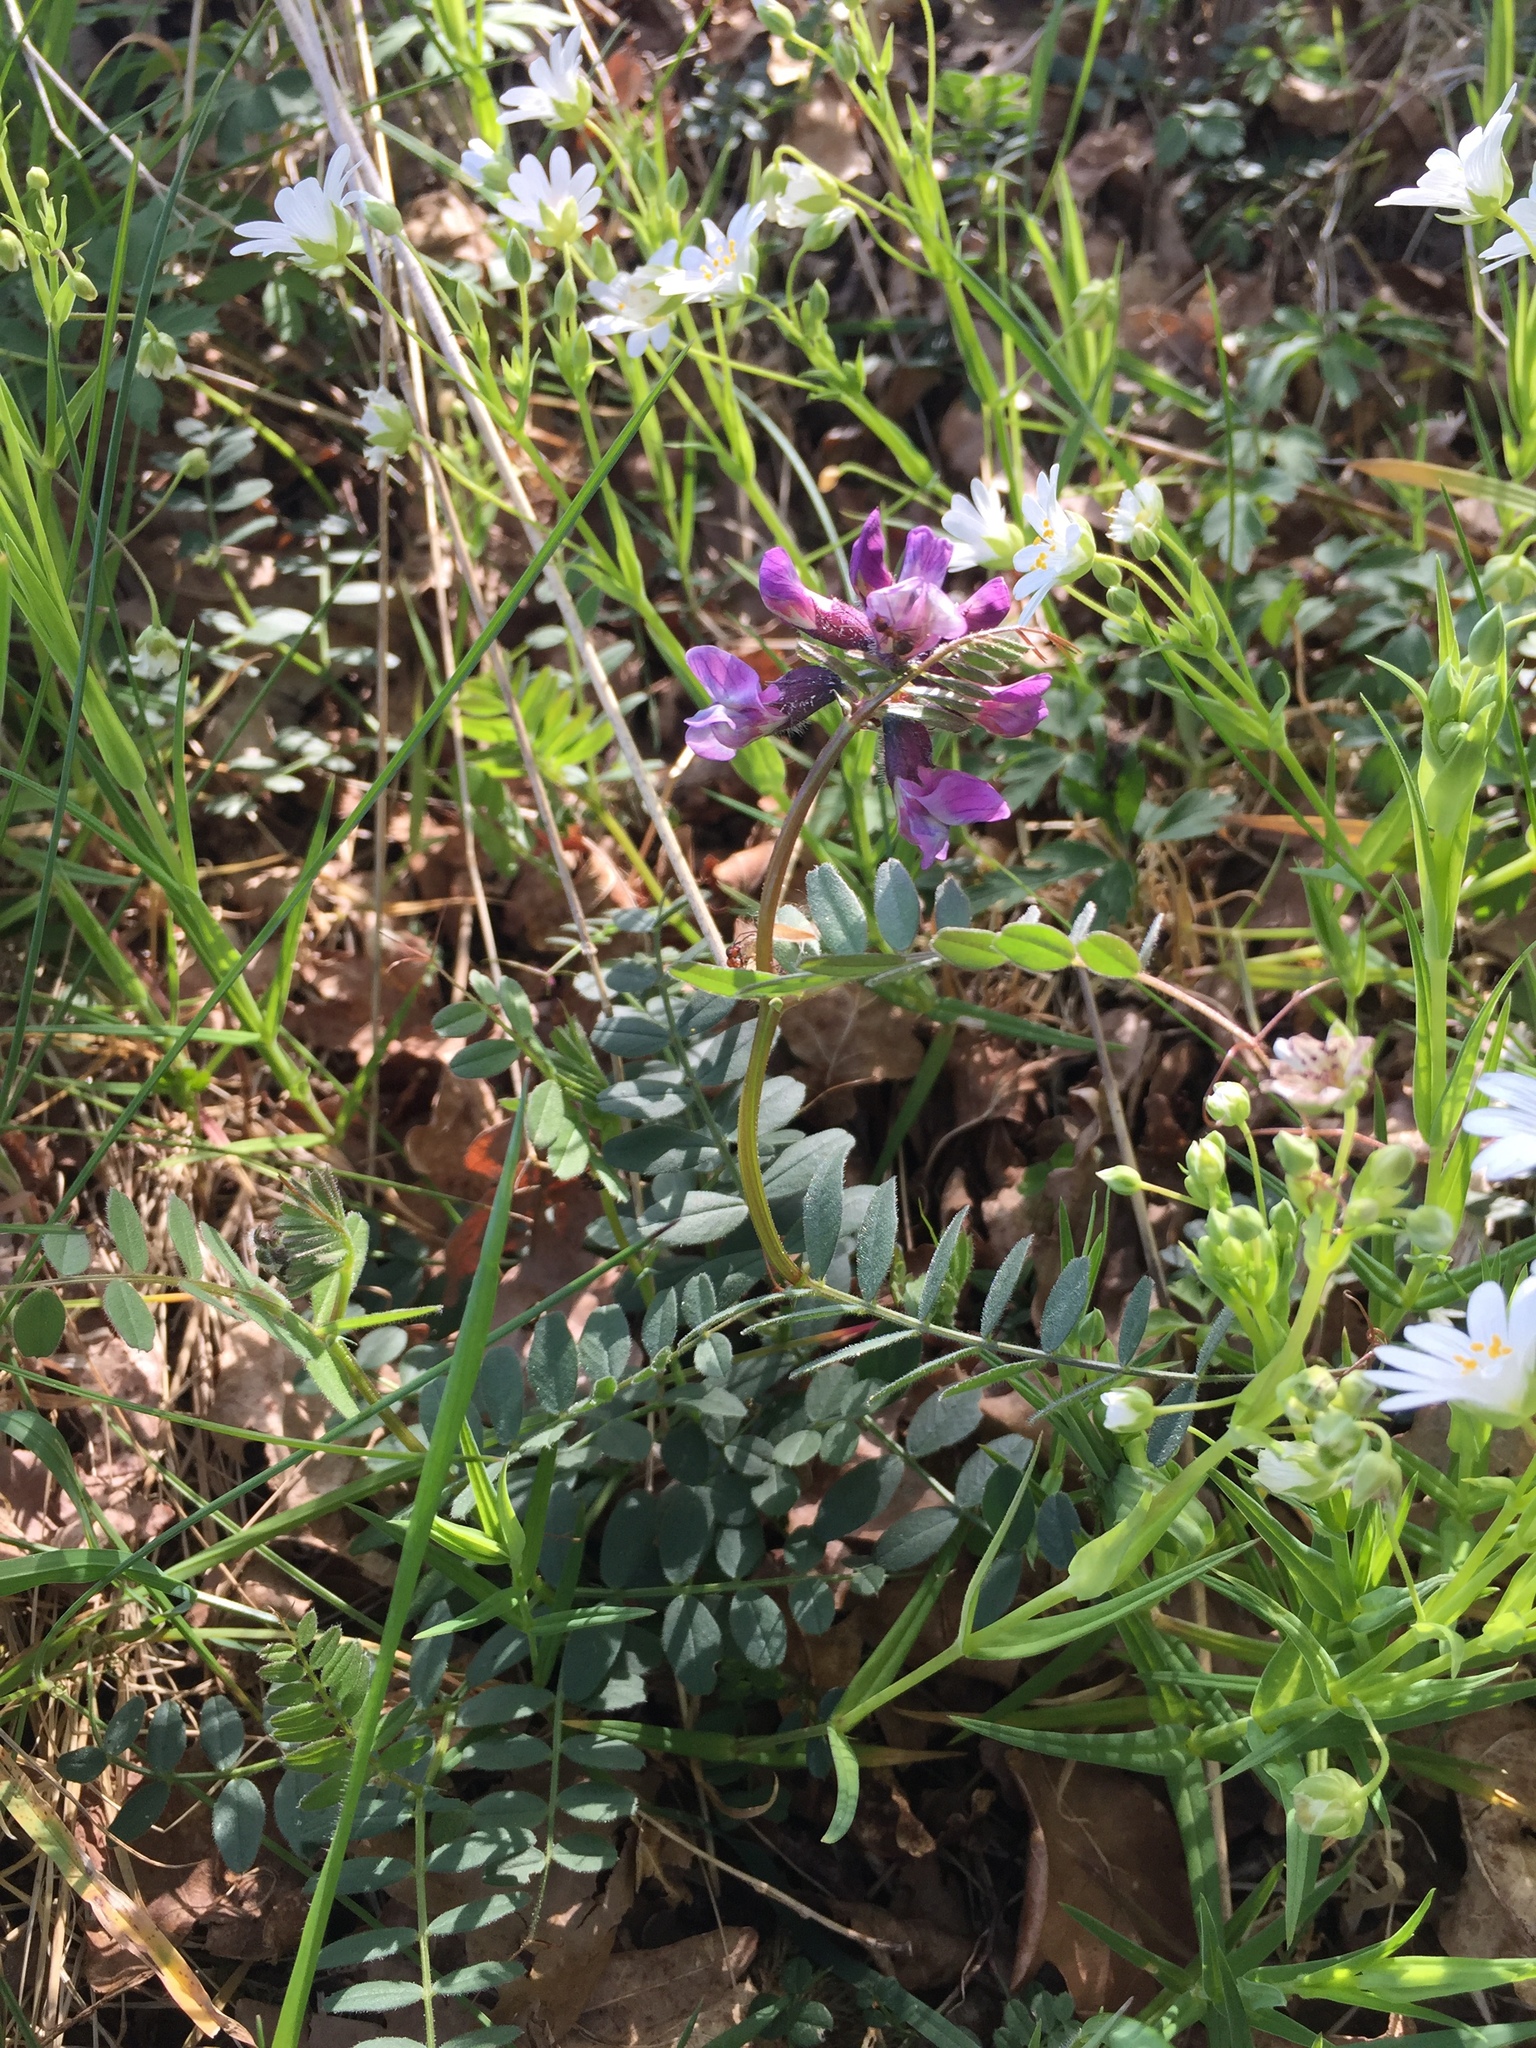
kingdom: Plantae
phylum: Tracheophyta
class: Magnoliopsida
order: Fabales
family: Fabaceae
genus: Vicia
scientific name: Vicia sepium
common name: Bush vetch
